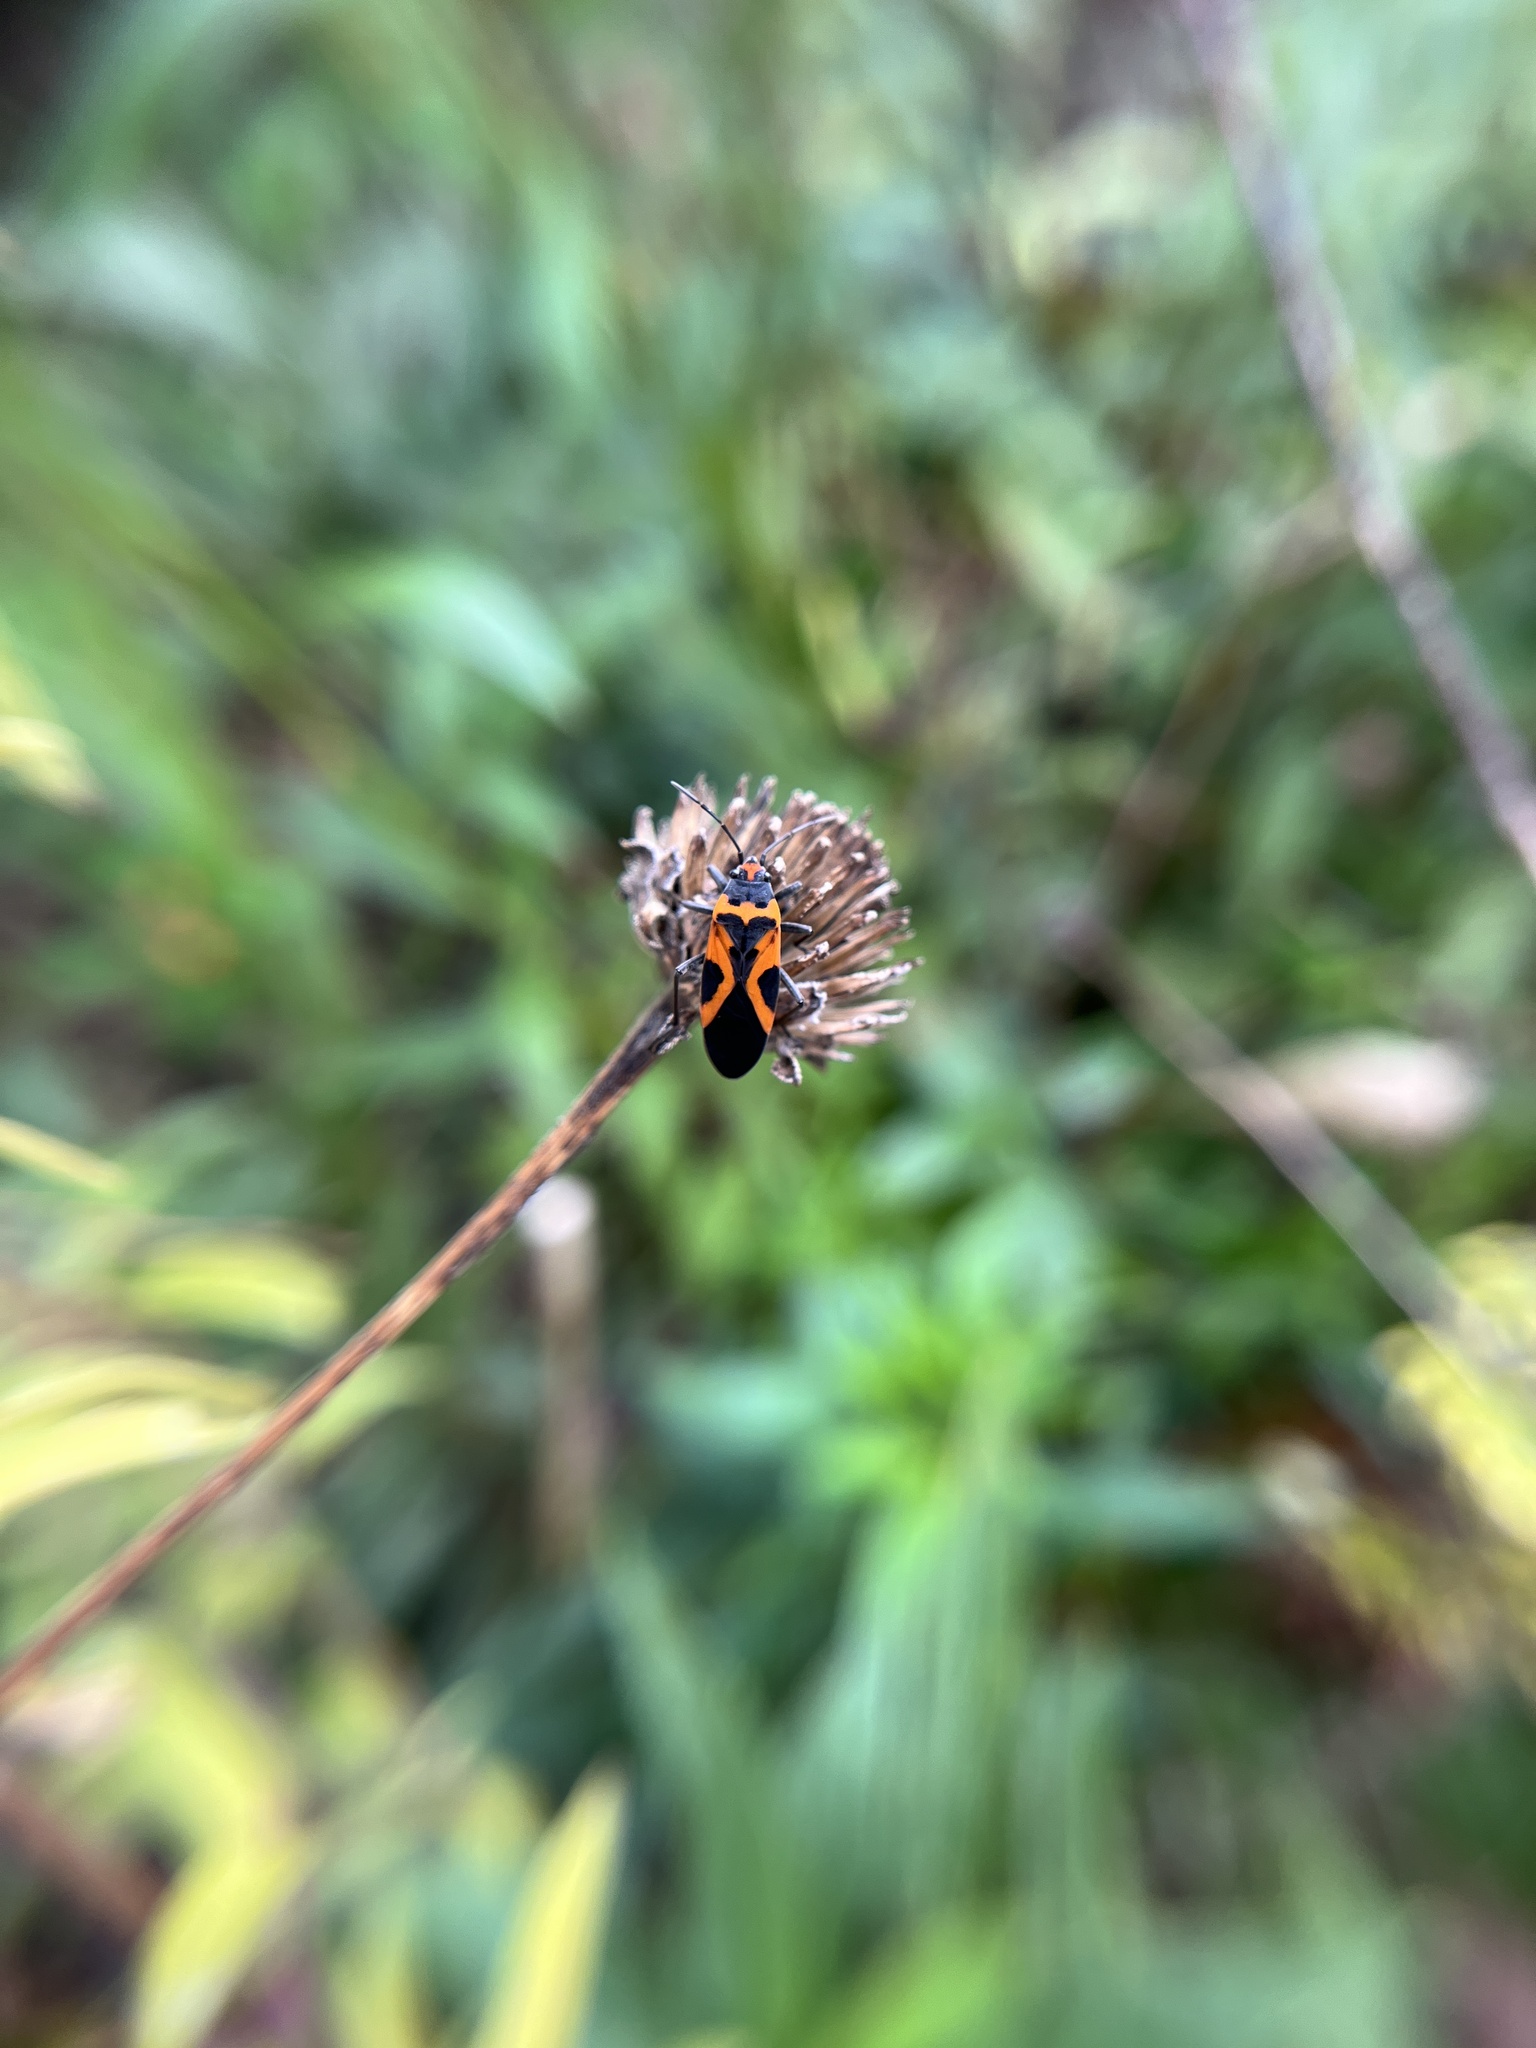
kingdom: Animalia
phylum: Arthropoda
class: Insecta
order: Hemiptera
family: Lygaeidae
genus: Lygaeus
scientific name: Lygaeus turcicus
